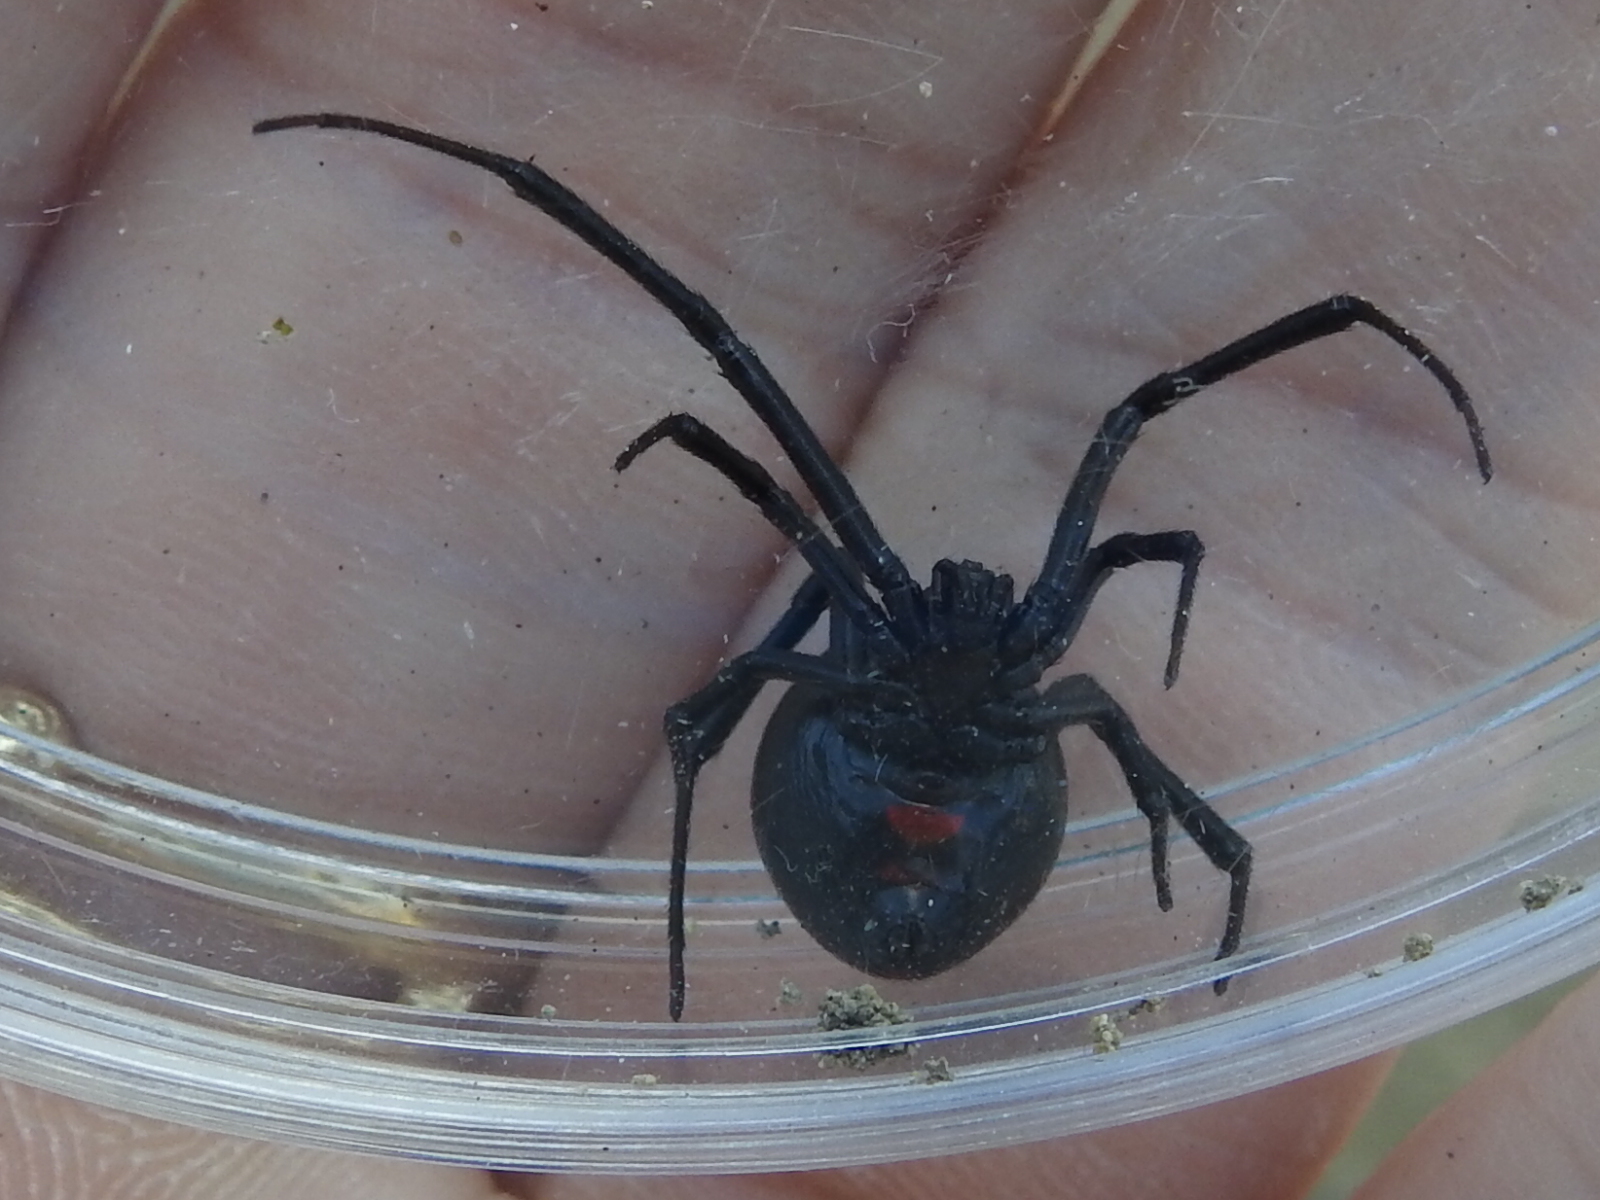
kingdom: Animalia
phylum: Arthropoda
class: Arachnida
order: Araneae
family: Theridiidae
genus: Latrodectus
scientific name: Latrodectus mactans
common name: Cobweb spiders
